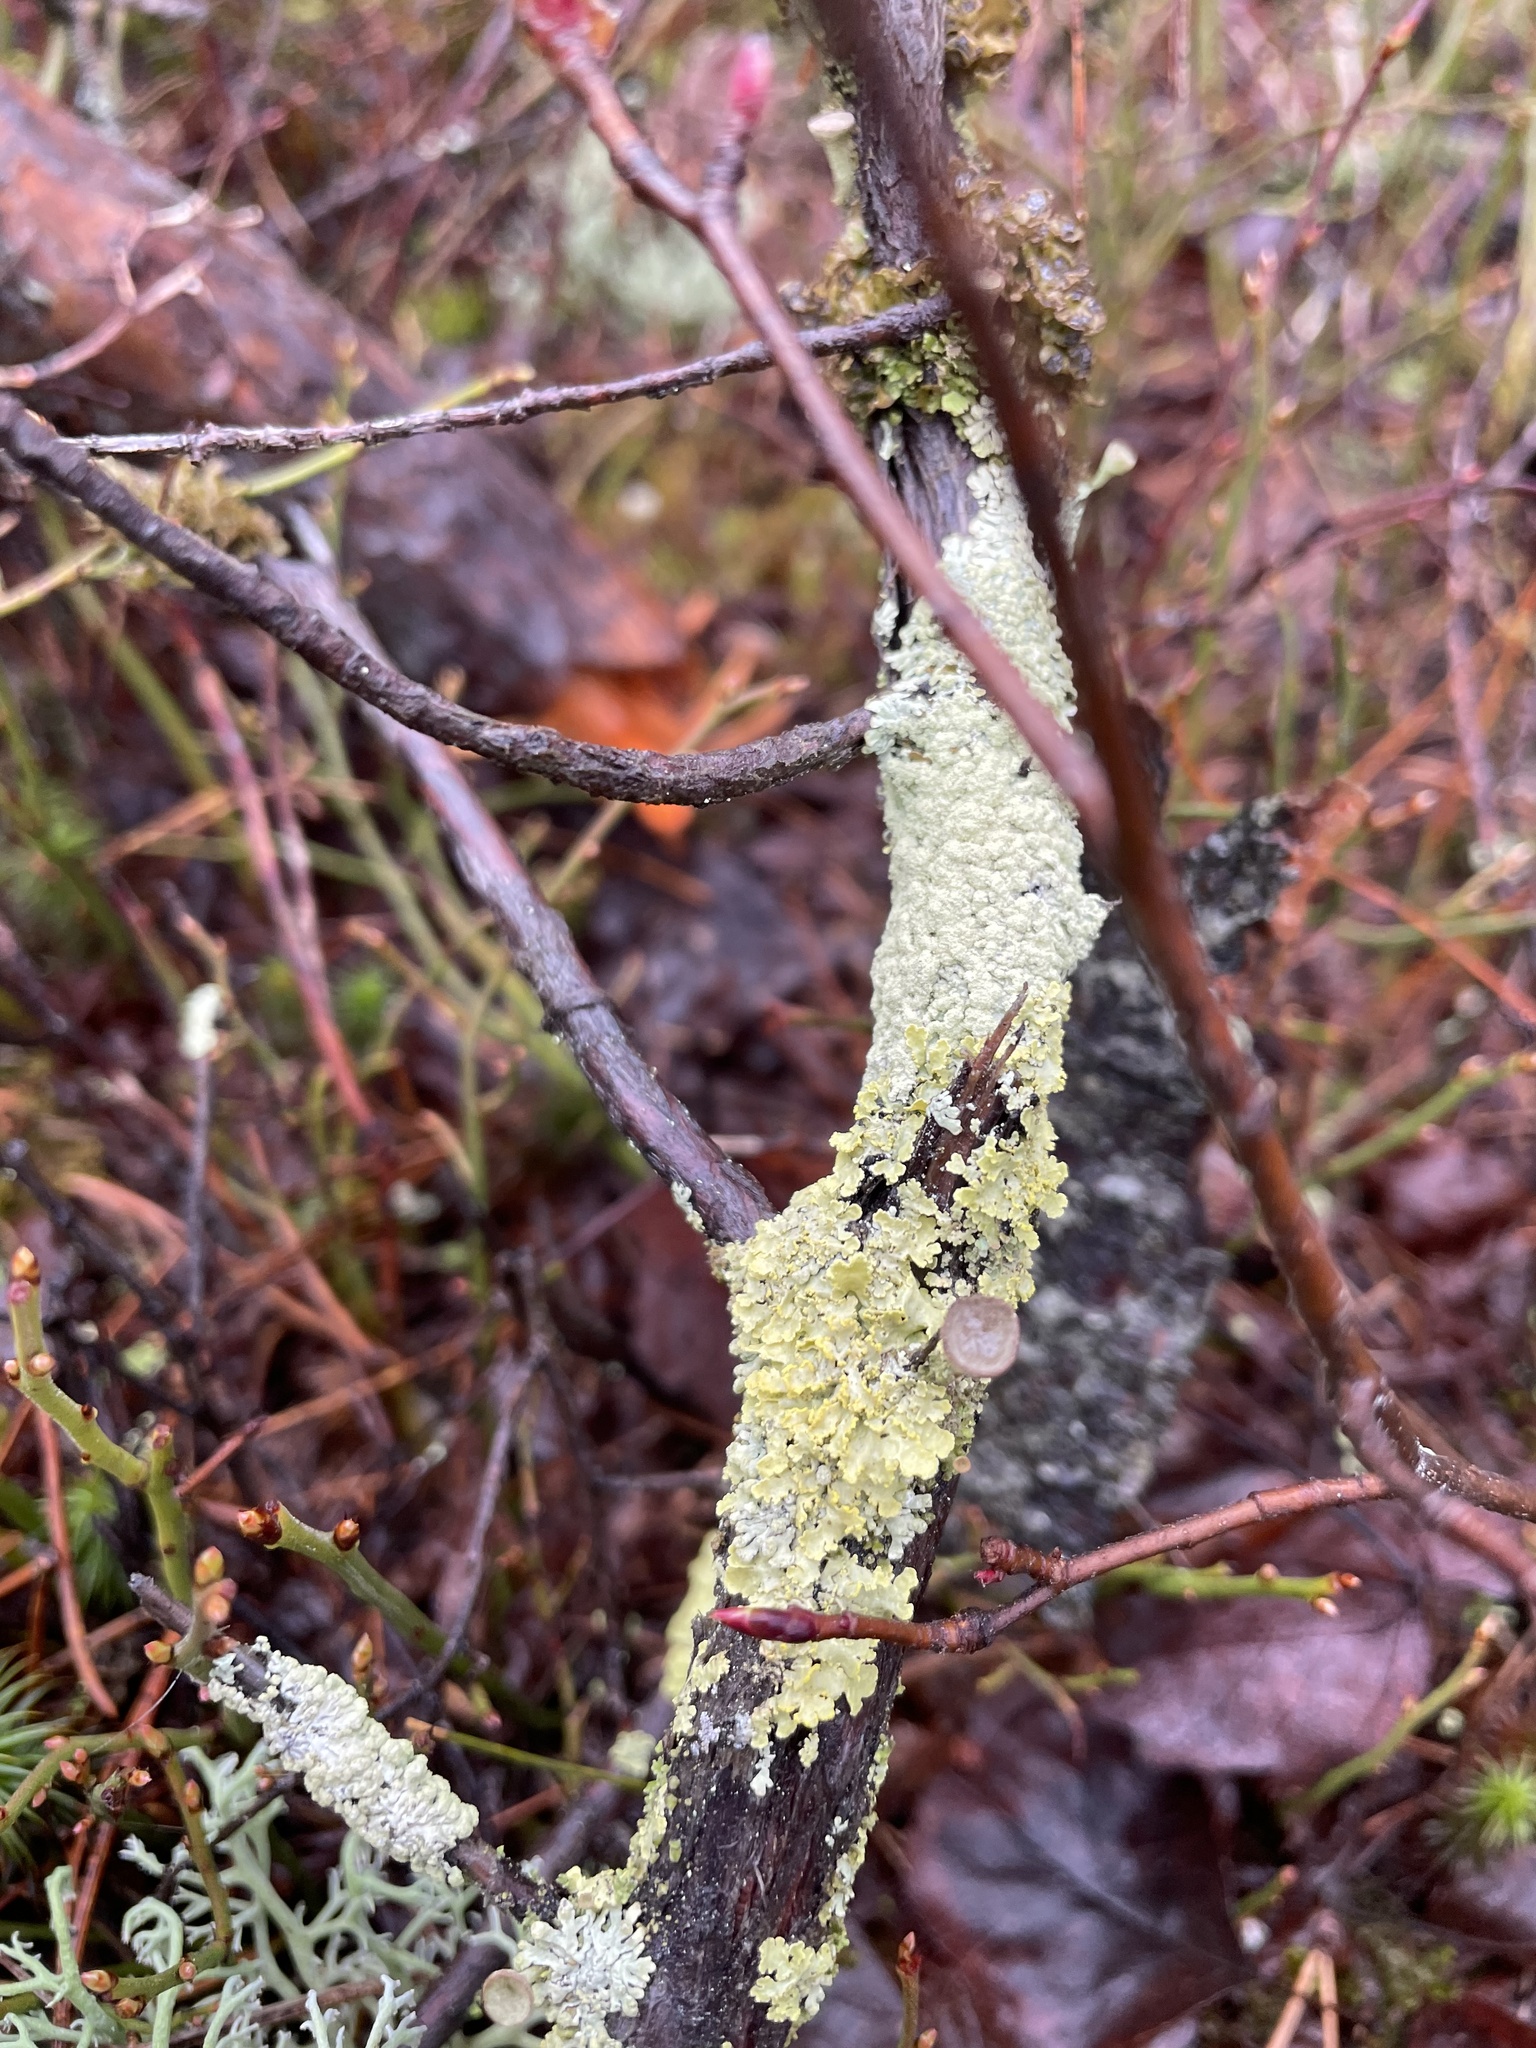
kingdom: Fungi
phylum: Ascomycota
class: Lecanoromycetes
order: Lecanorales
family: Parmeliaceae
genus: Vulpicida
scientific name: Vulpicida pinastri
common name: Powdered sunshine lichen
